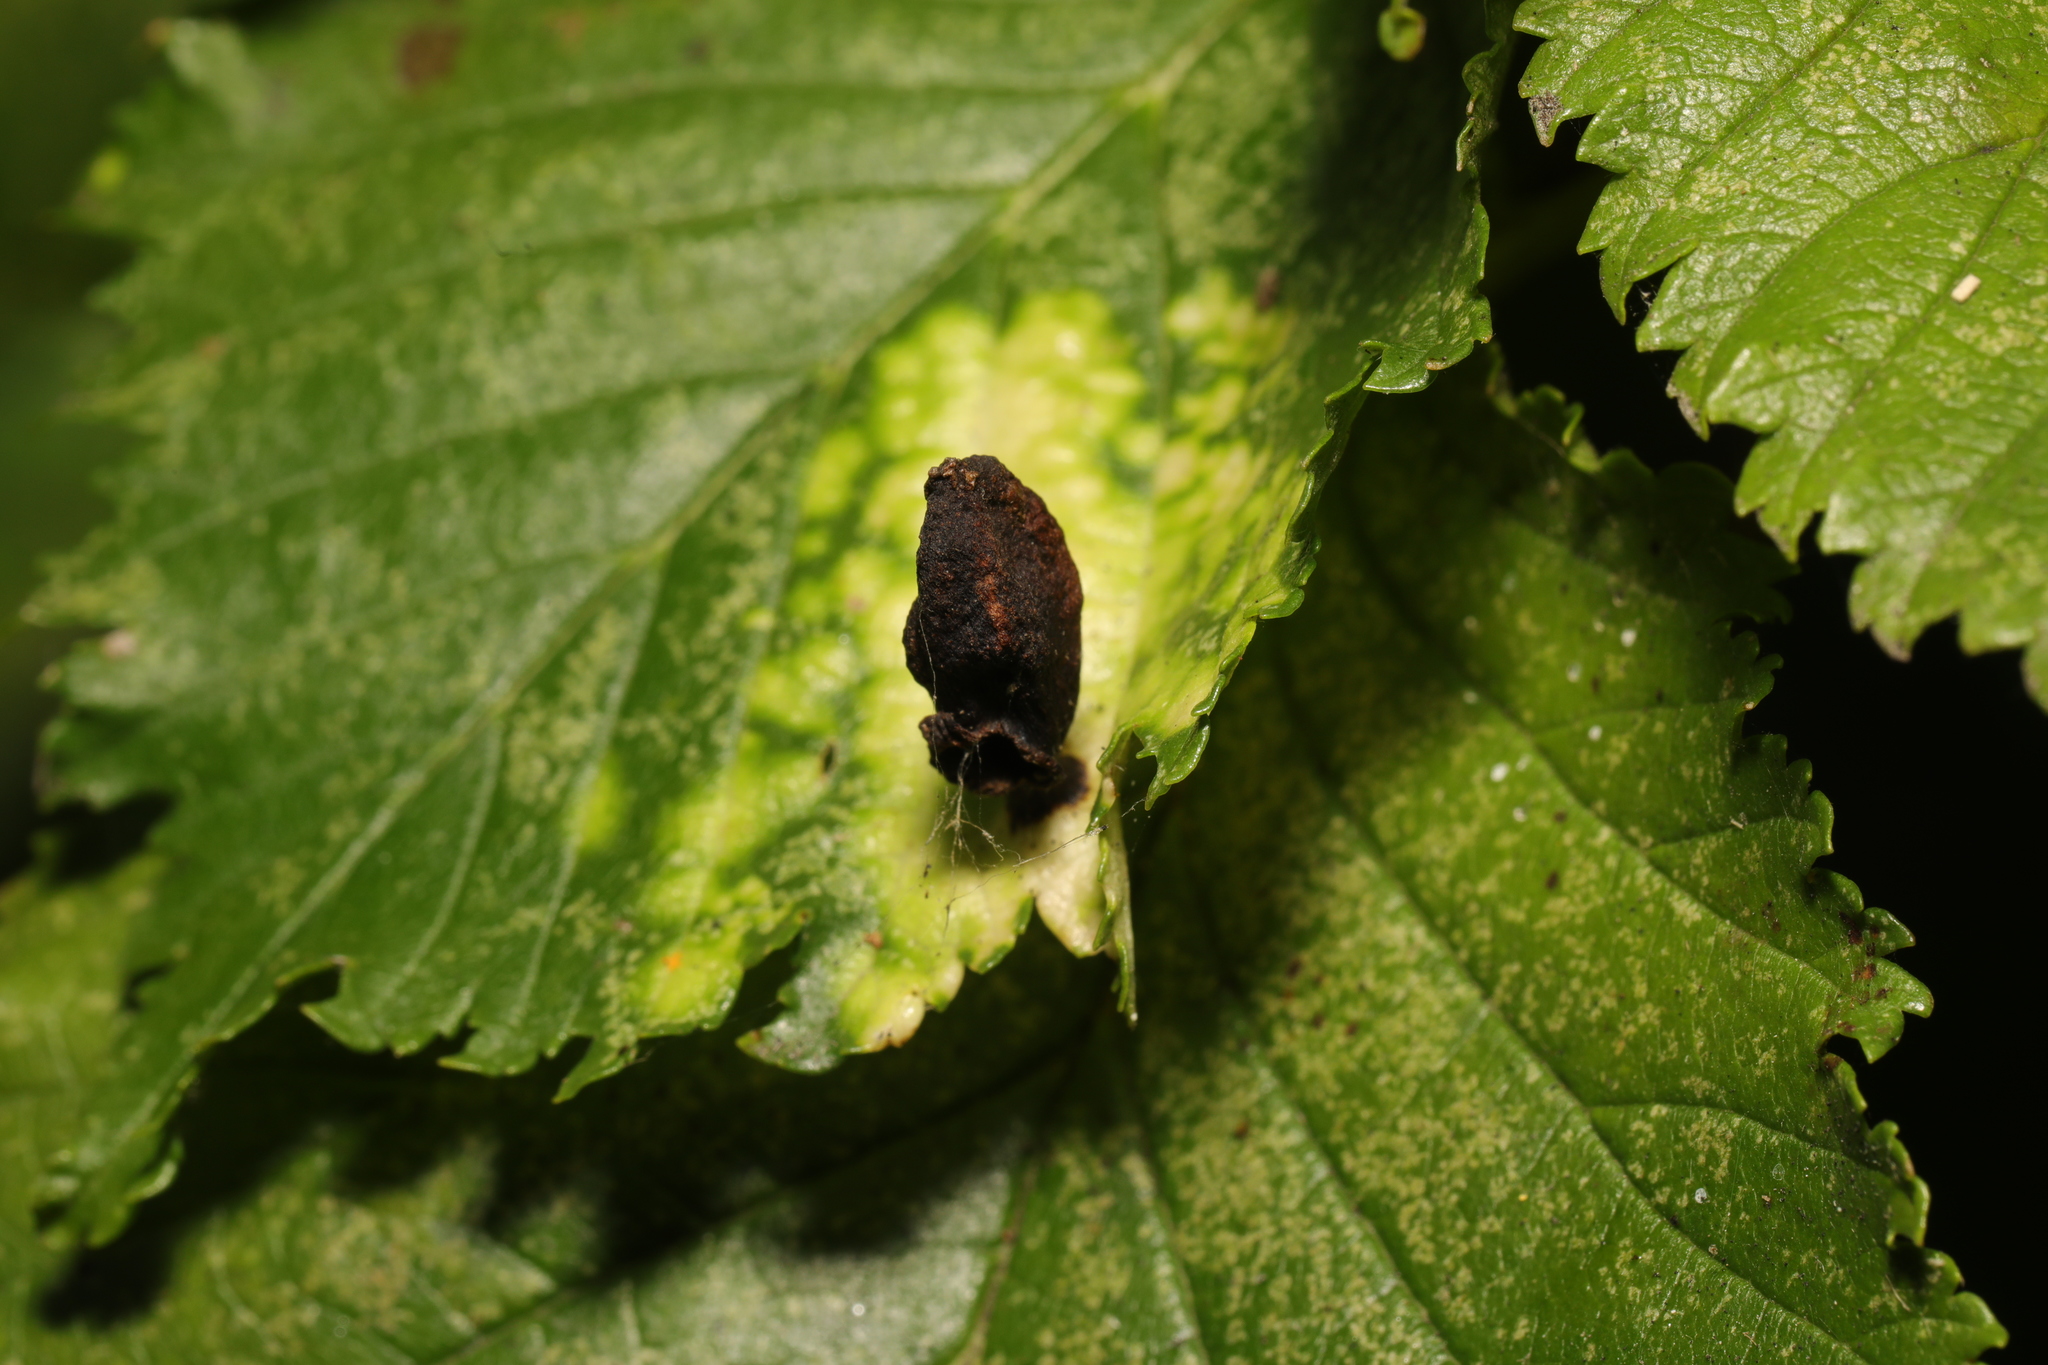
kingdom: Animalia
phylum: Arthropoda
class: Insecta
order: Hemiptera
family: Aphididae
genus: Tetraneura
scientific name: Tetraneura ulmi
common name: Aphid
